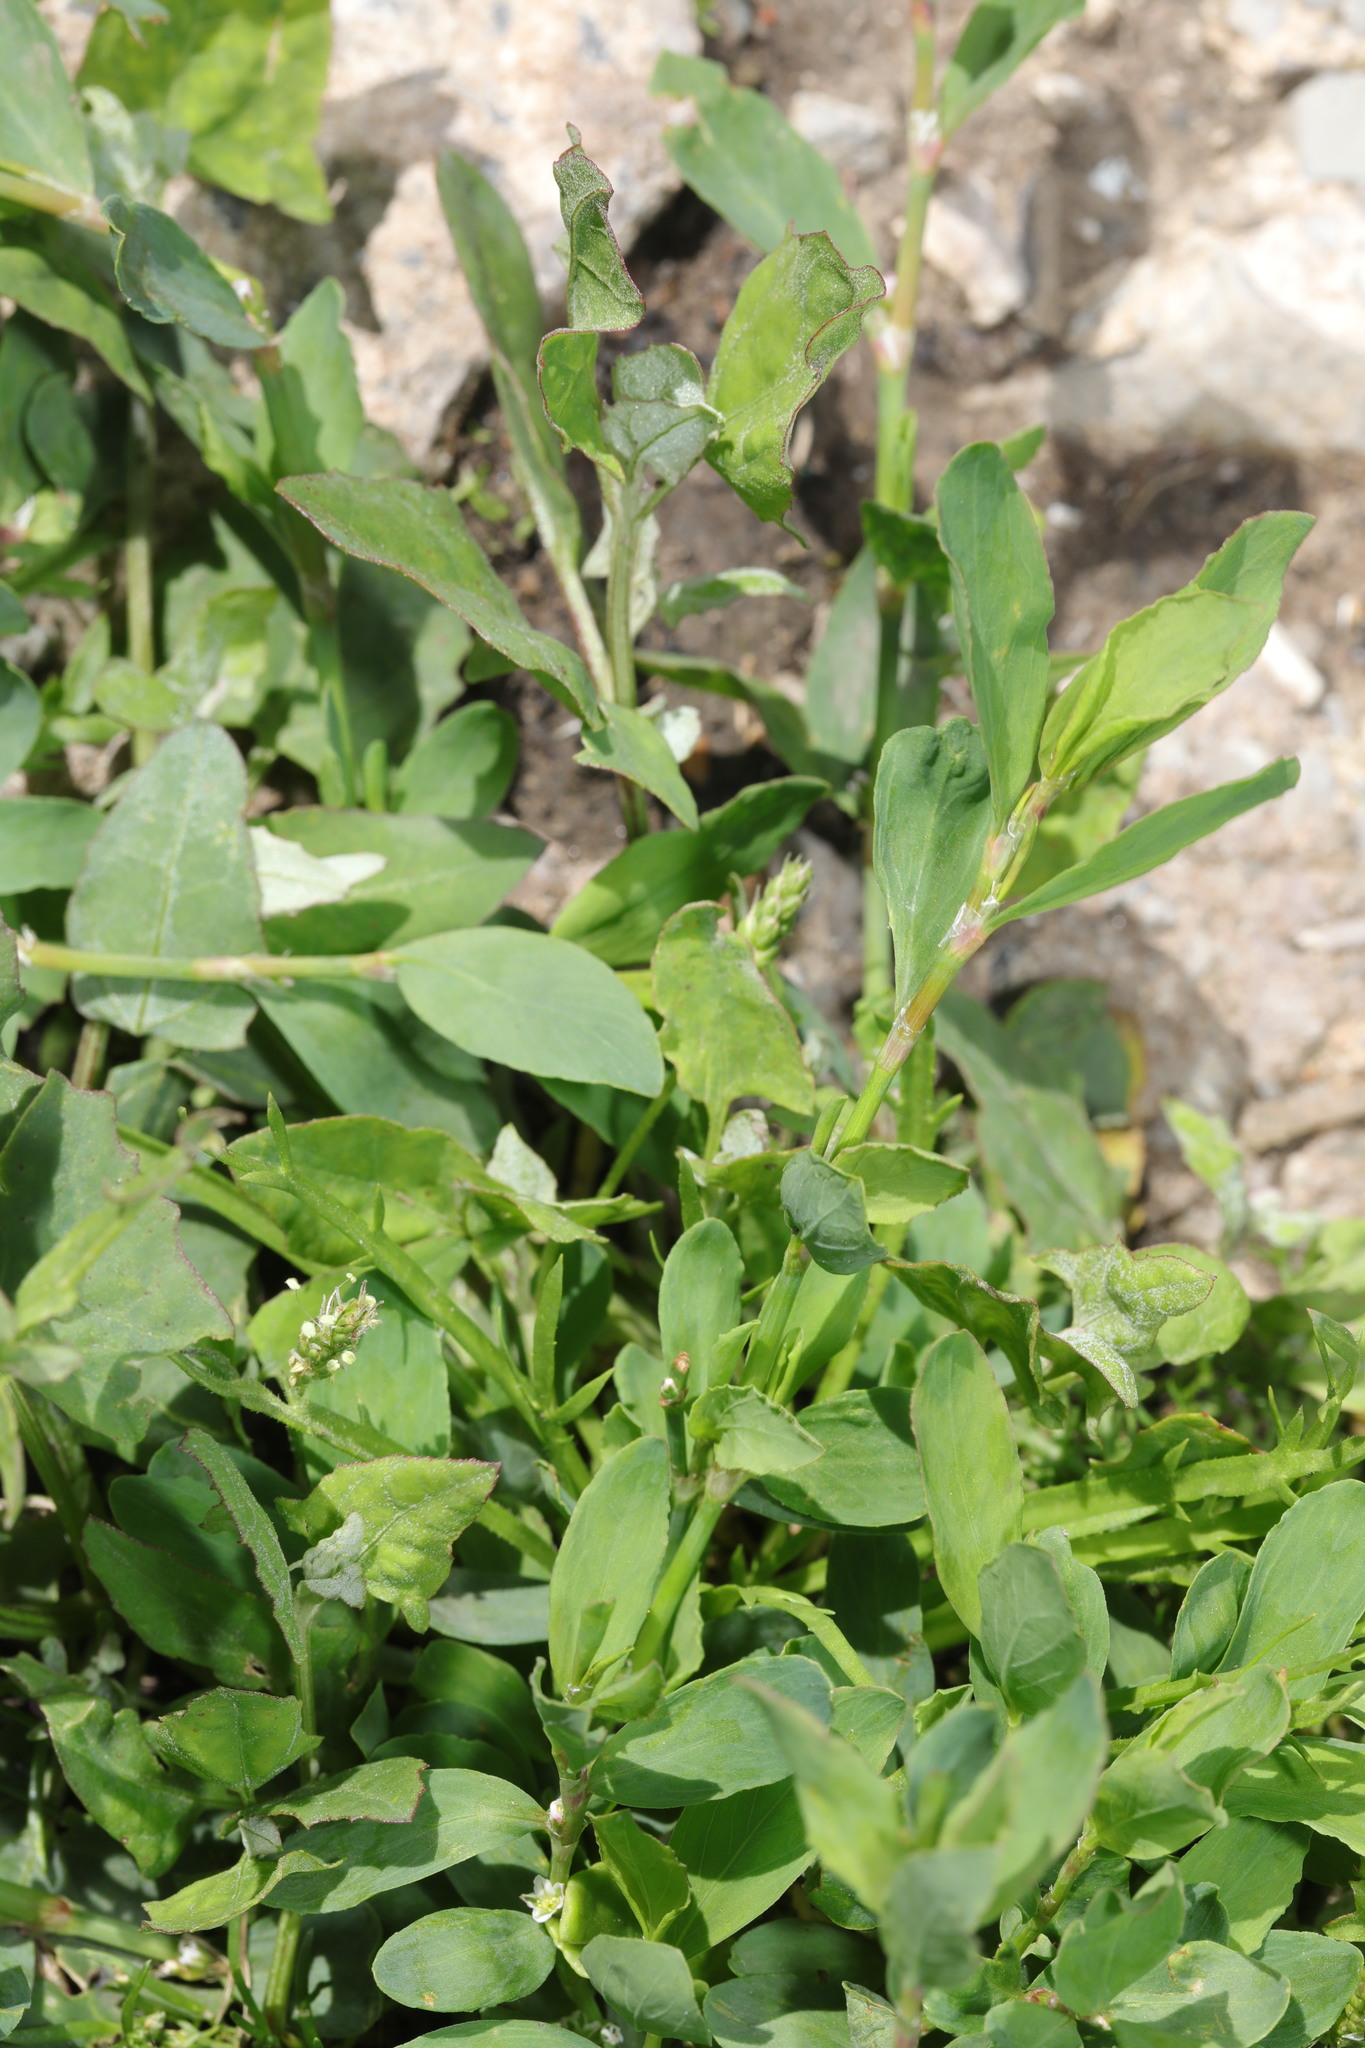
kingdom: Plantae
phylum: Tracheophyta
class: Magnoliopsida
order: Caryophyllales
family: Polygonaceae
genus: Polygonum
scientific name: Polygonum aviculare
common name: Prostrate knotweed
